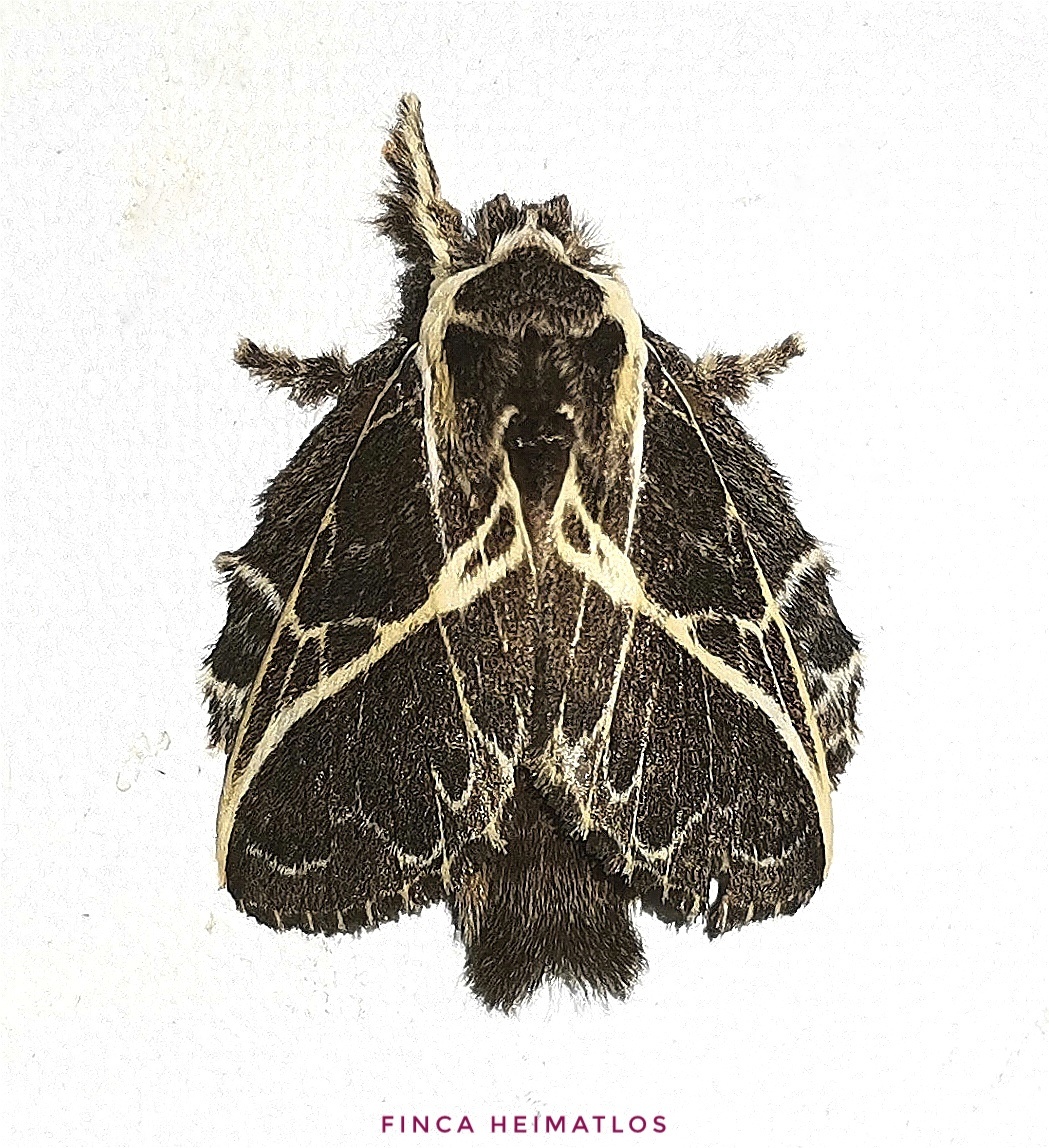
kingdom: Animalia
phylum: Arthropoda
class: Insecta
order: Lepidoptera
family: Lasiocampidae
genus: Euglyphis
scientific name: Euglyphis laudia
